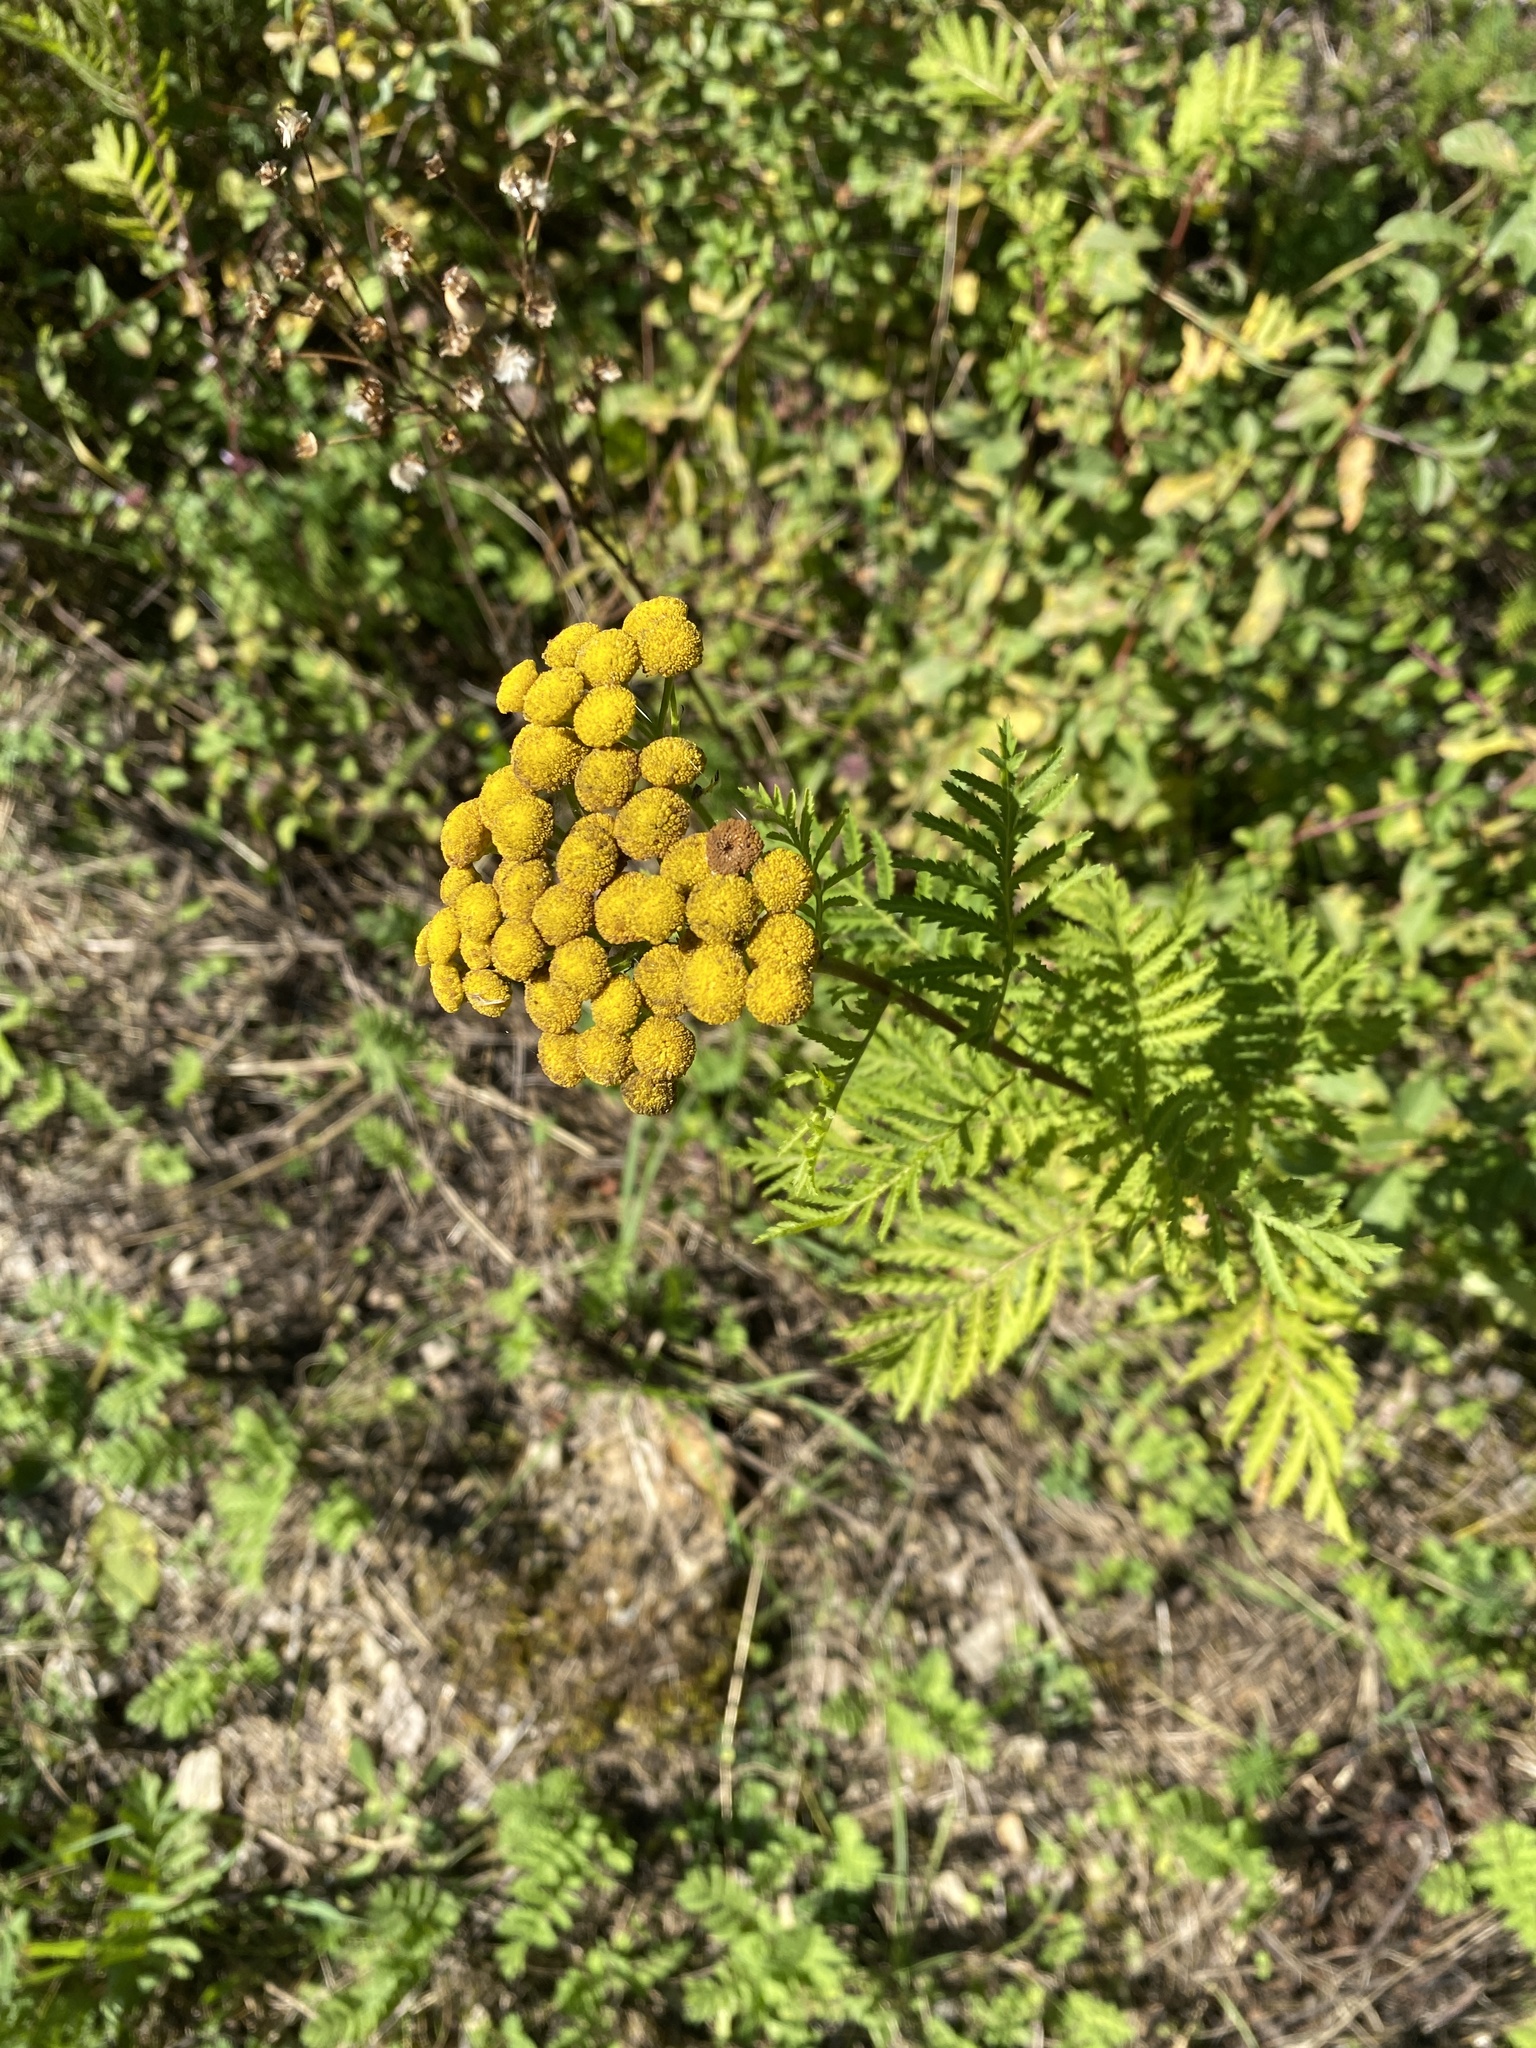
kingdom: Plantae
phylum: Tracheophyta
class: Magnoliopsida
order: Asterales
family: Asteraceae
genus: Tanacetum
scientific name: Tanacetum vulgare
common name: Common tansy
